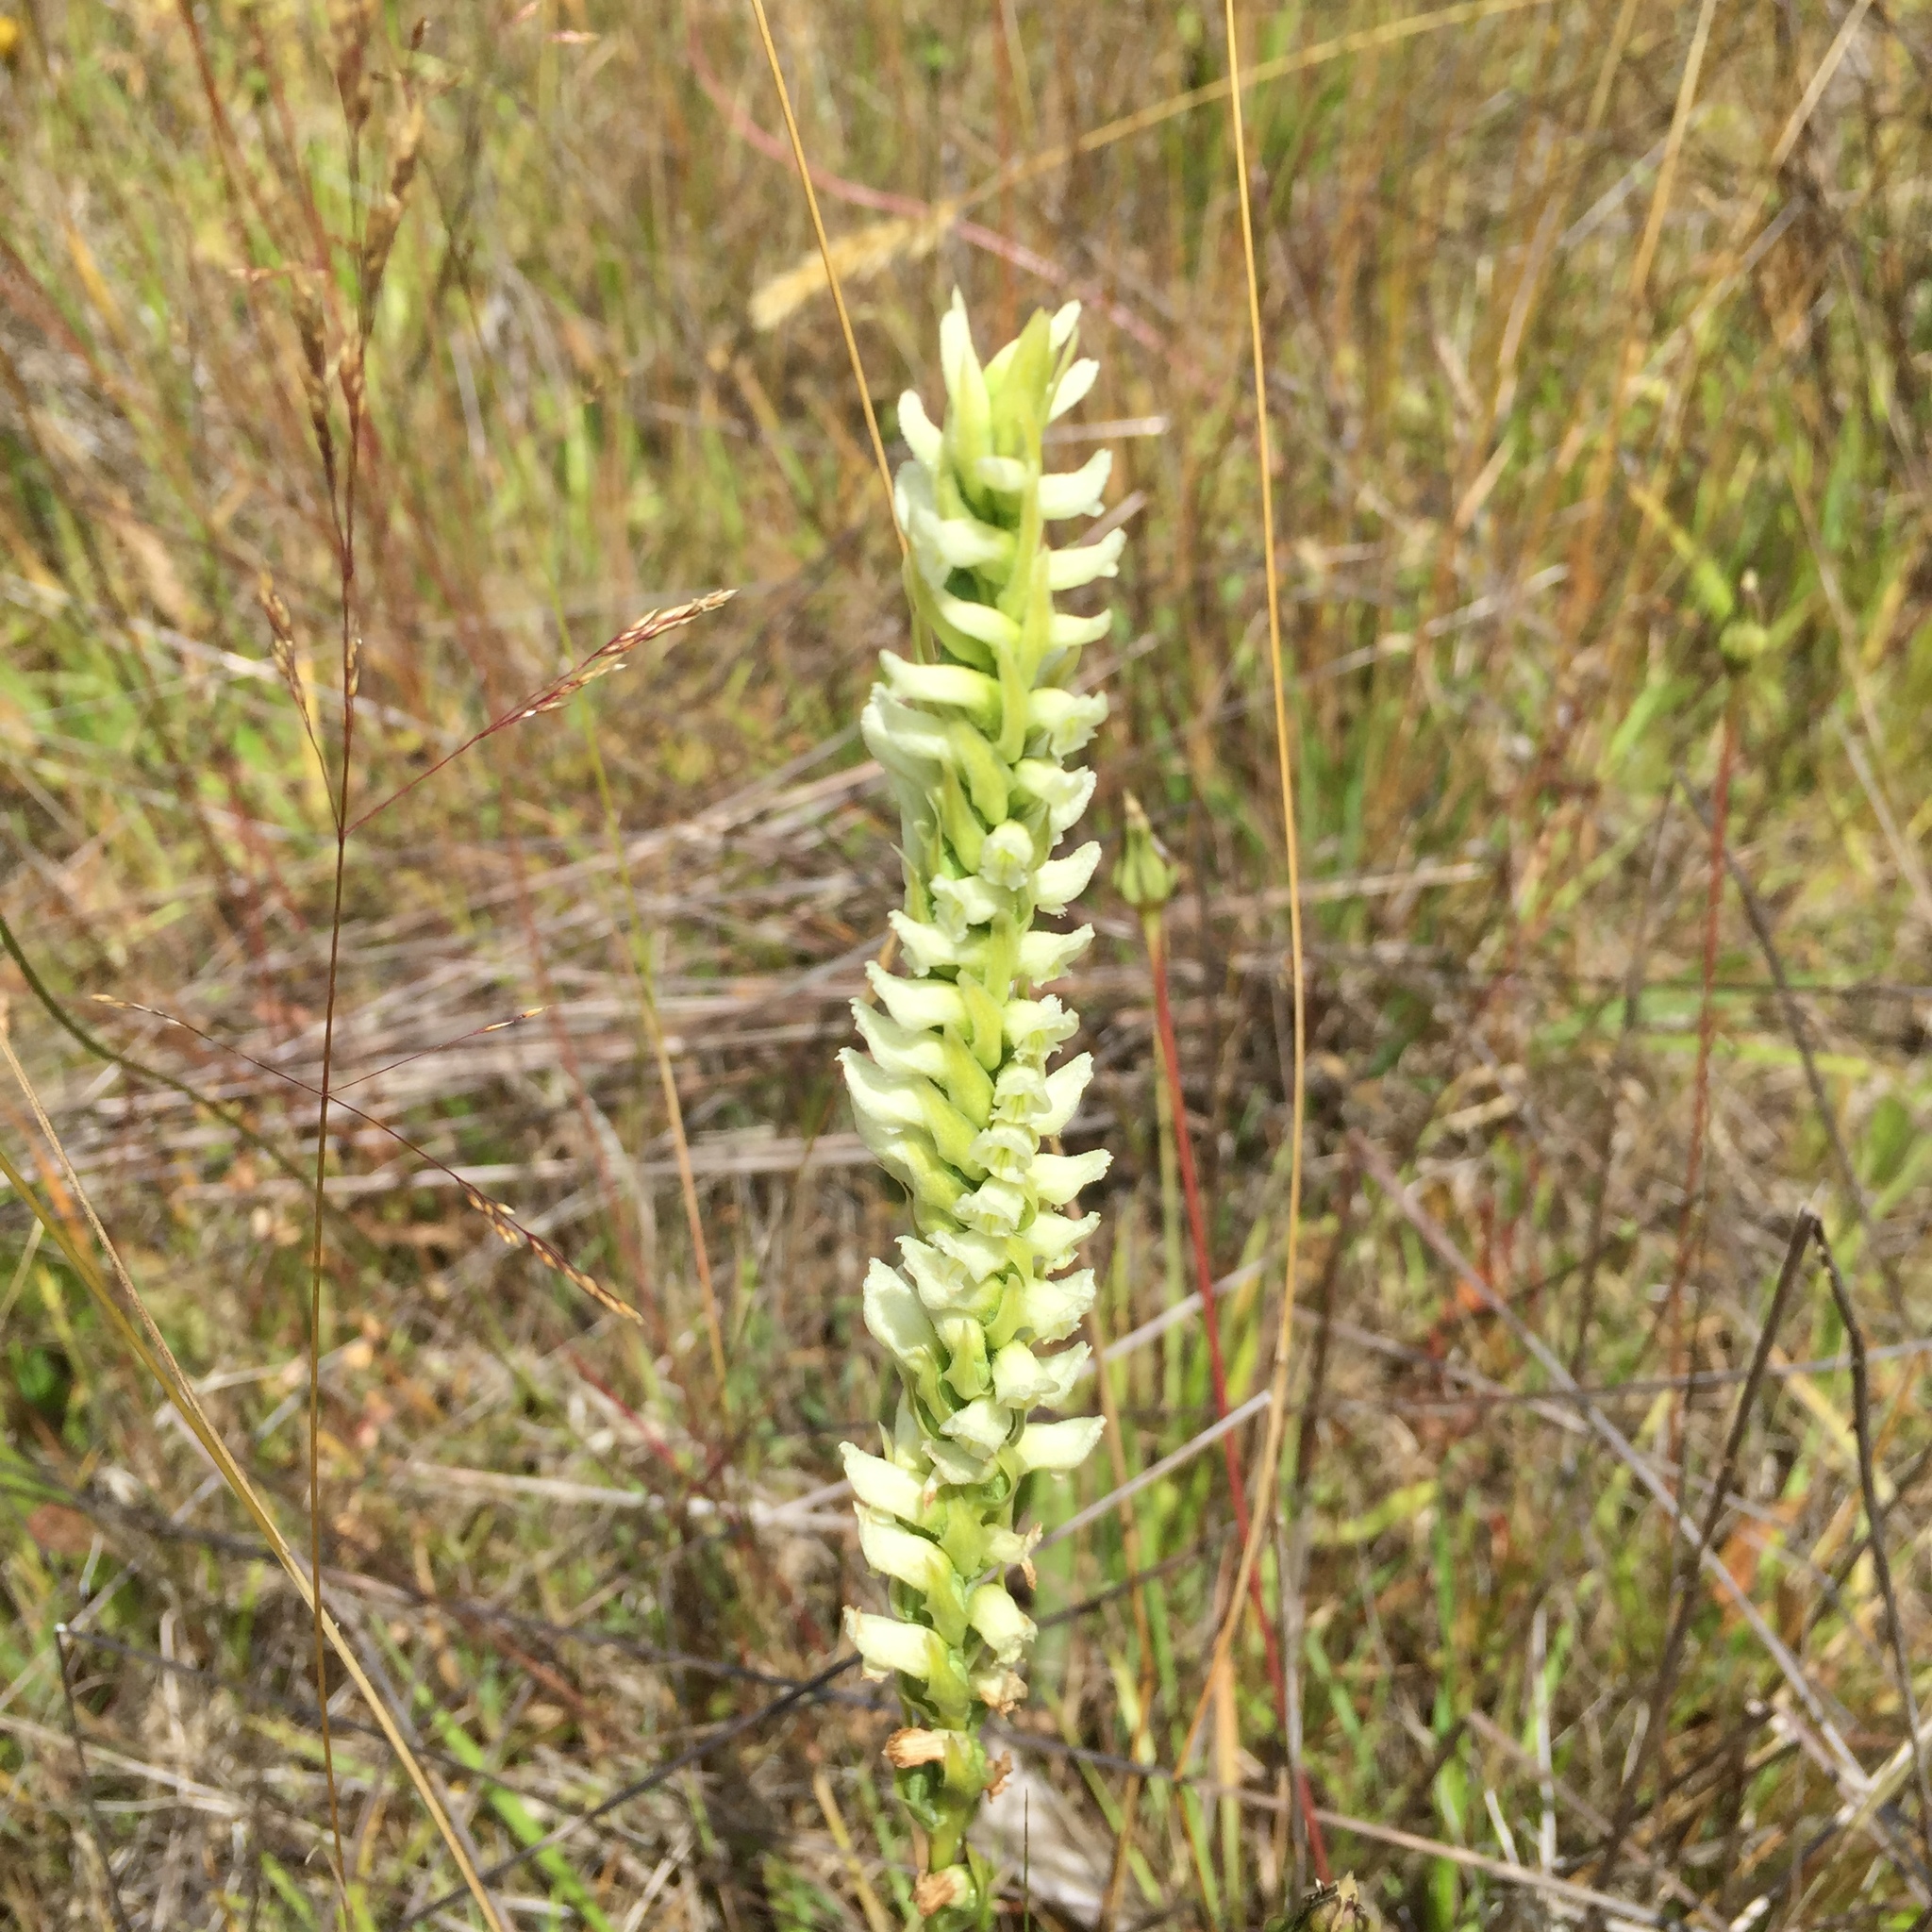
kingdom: Plantae
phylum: Tracheophyta
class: Liliopsida
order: Asparagales
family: Orchidaceae
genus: Spiranthes
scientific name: Spiranthes romanzoffiana
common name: Irish lady's-tresses
